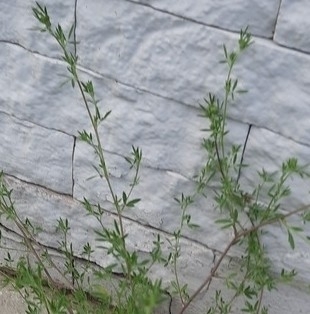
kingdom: Plantae
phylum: Tracheophyta
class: Magnoliopsida
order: Fabales
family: Fabaceae
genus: Medicago
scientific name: Medicago falcata
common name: Sickle medick
